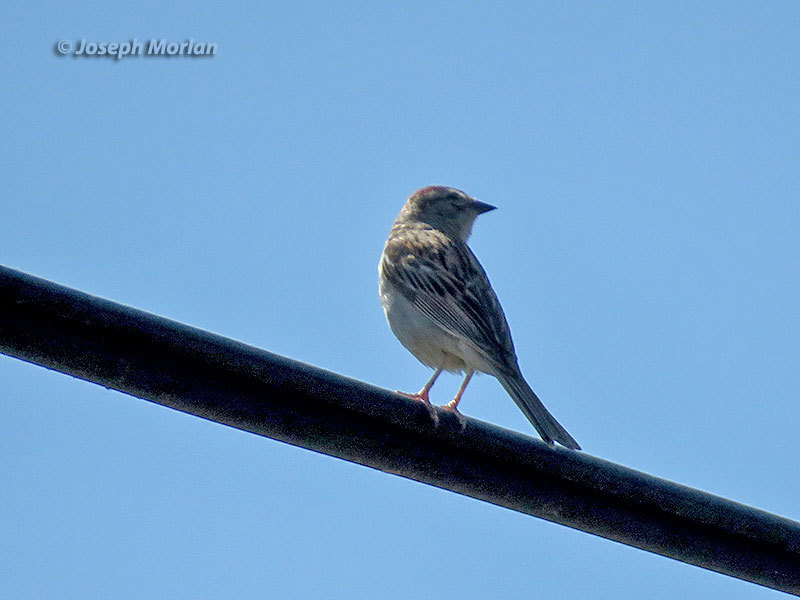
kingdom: Animalia
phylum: Chordata
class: Aves
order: Passeriformes
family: Passerellidae
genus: Spizella
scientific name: Spizella passerina
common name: Chipping sparrow
